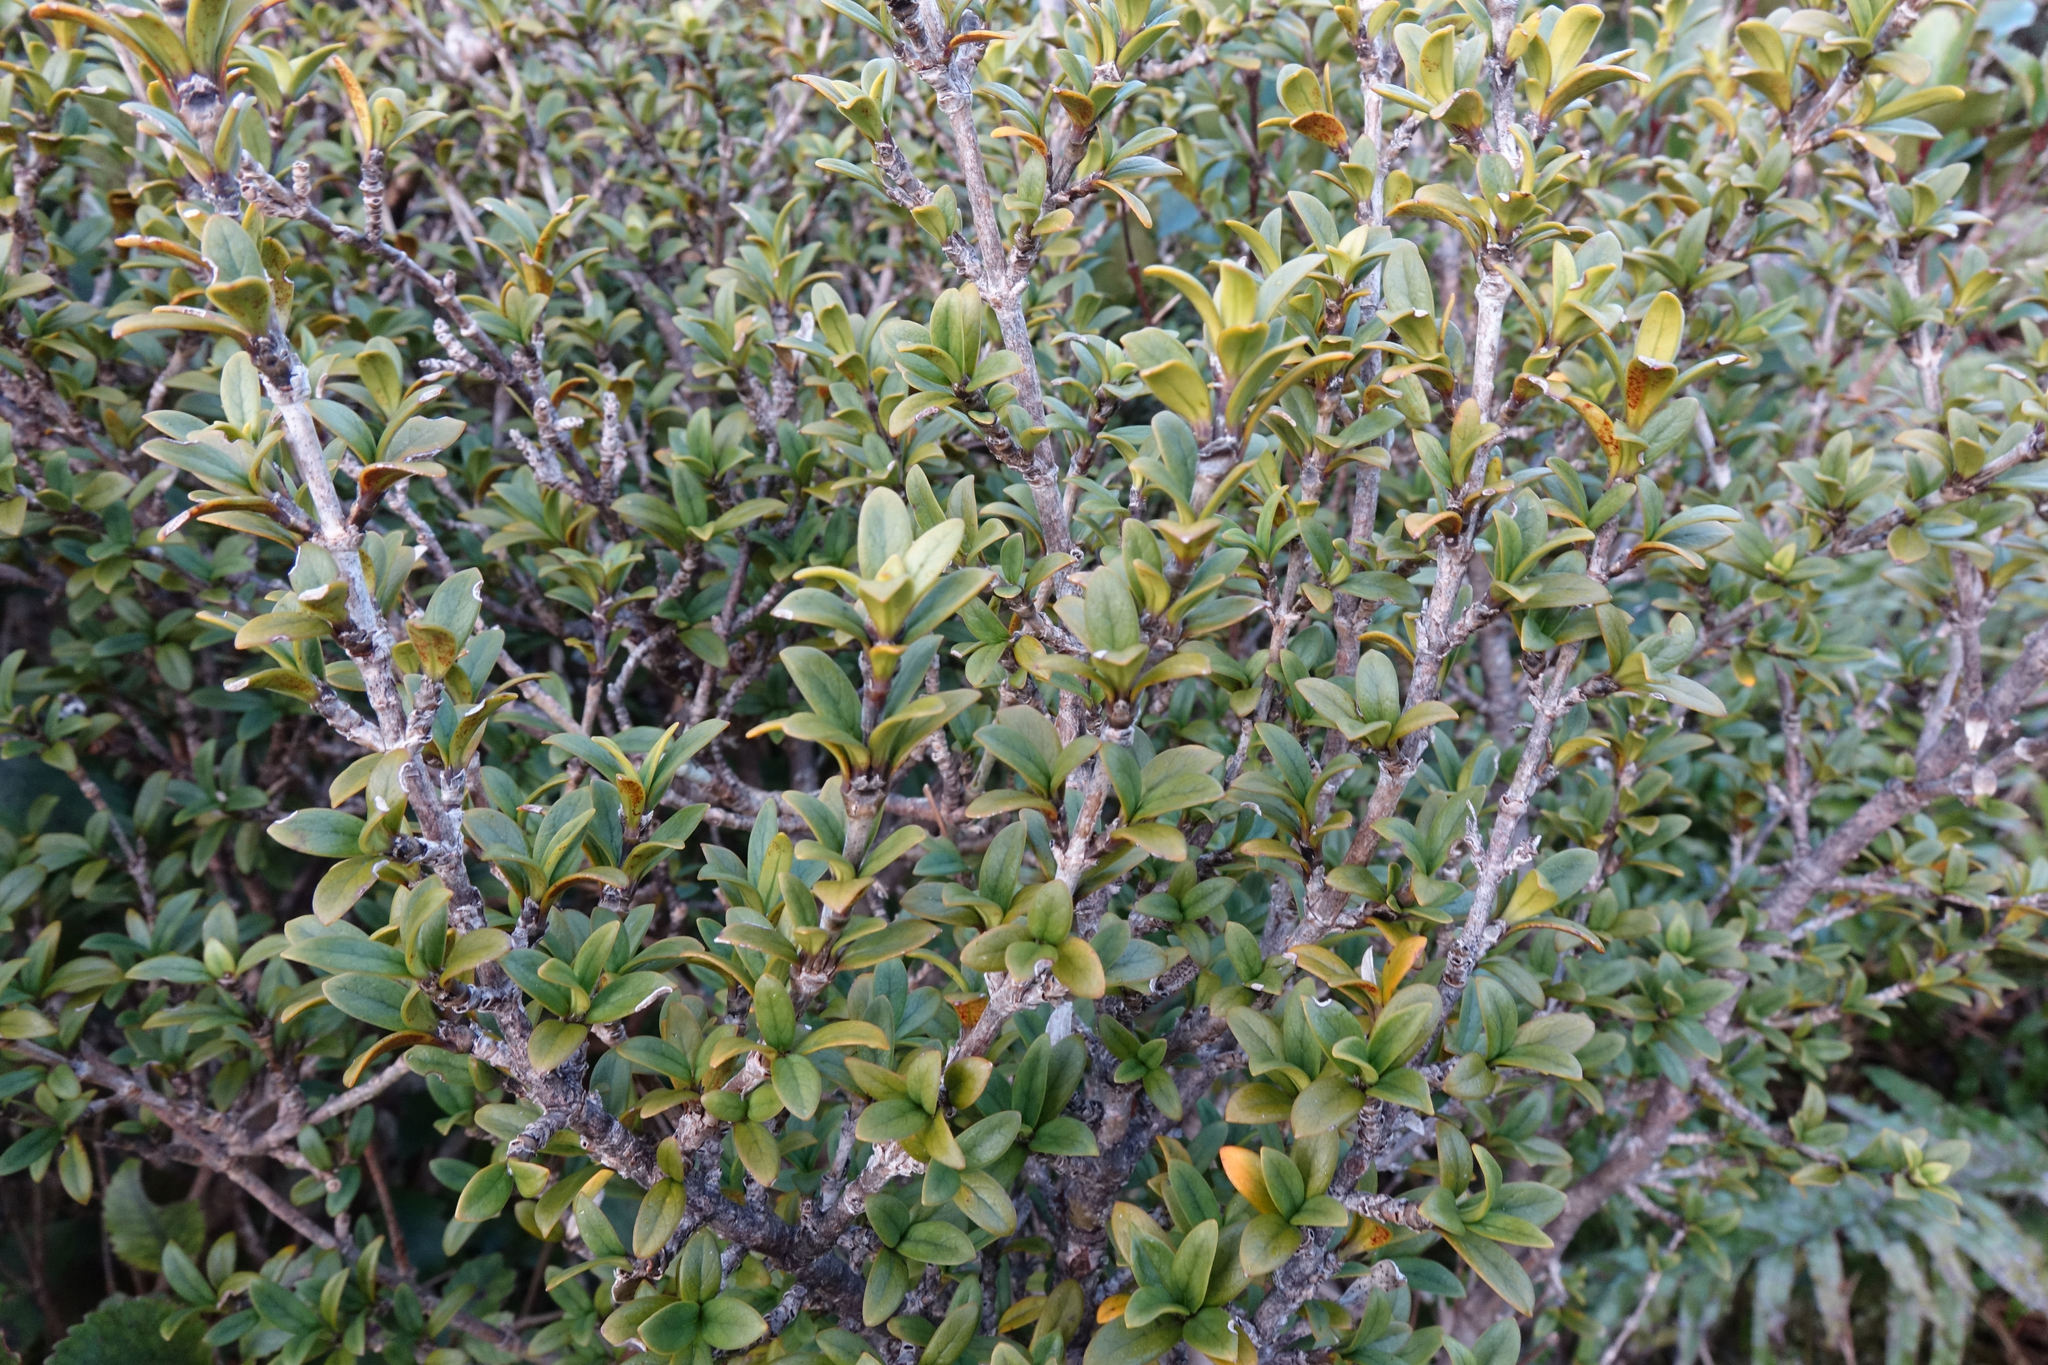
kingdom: Plantae
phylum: Tracheophyta
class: Magnoliopsida
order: Gentianales
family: Rubiaceae
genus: Coprosma
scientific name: Coprosma pseudocuneata
